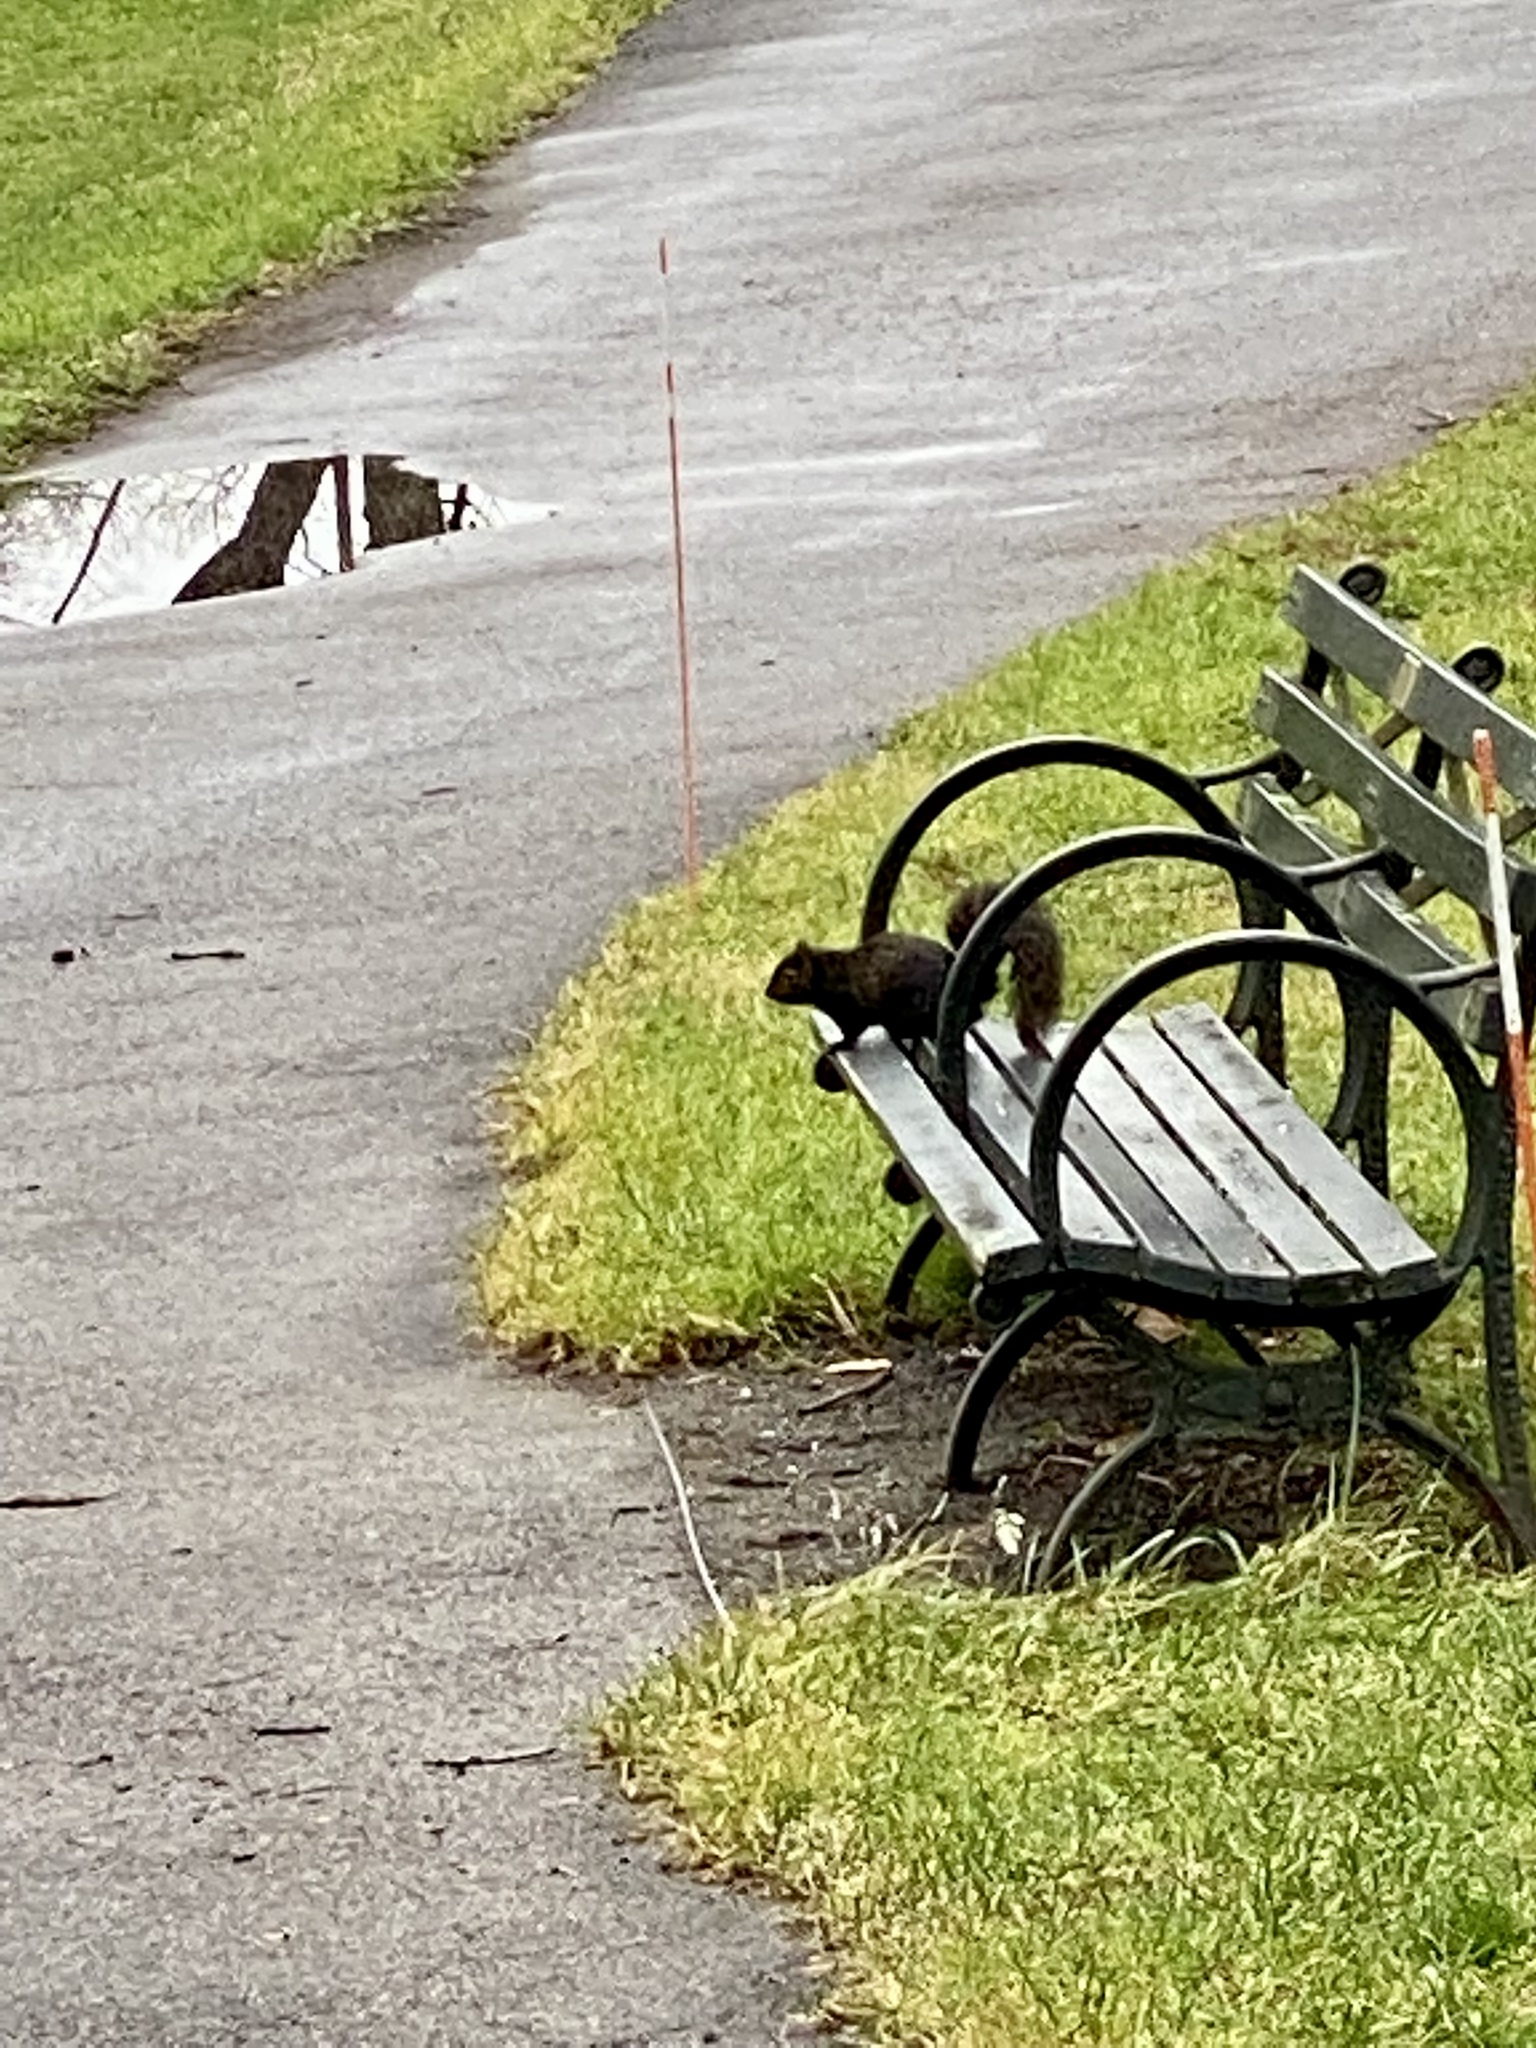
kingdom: Animalia
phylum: Chordata
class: Mammalia
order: Rodentia
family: Sciuridae
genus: Sciurus
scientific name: Sciurus carolinensis
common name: Eastern gray squirrel
